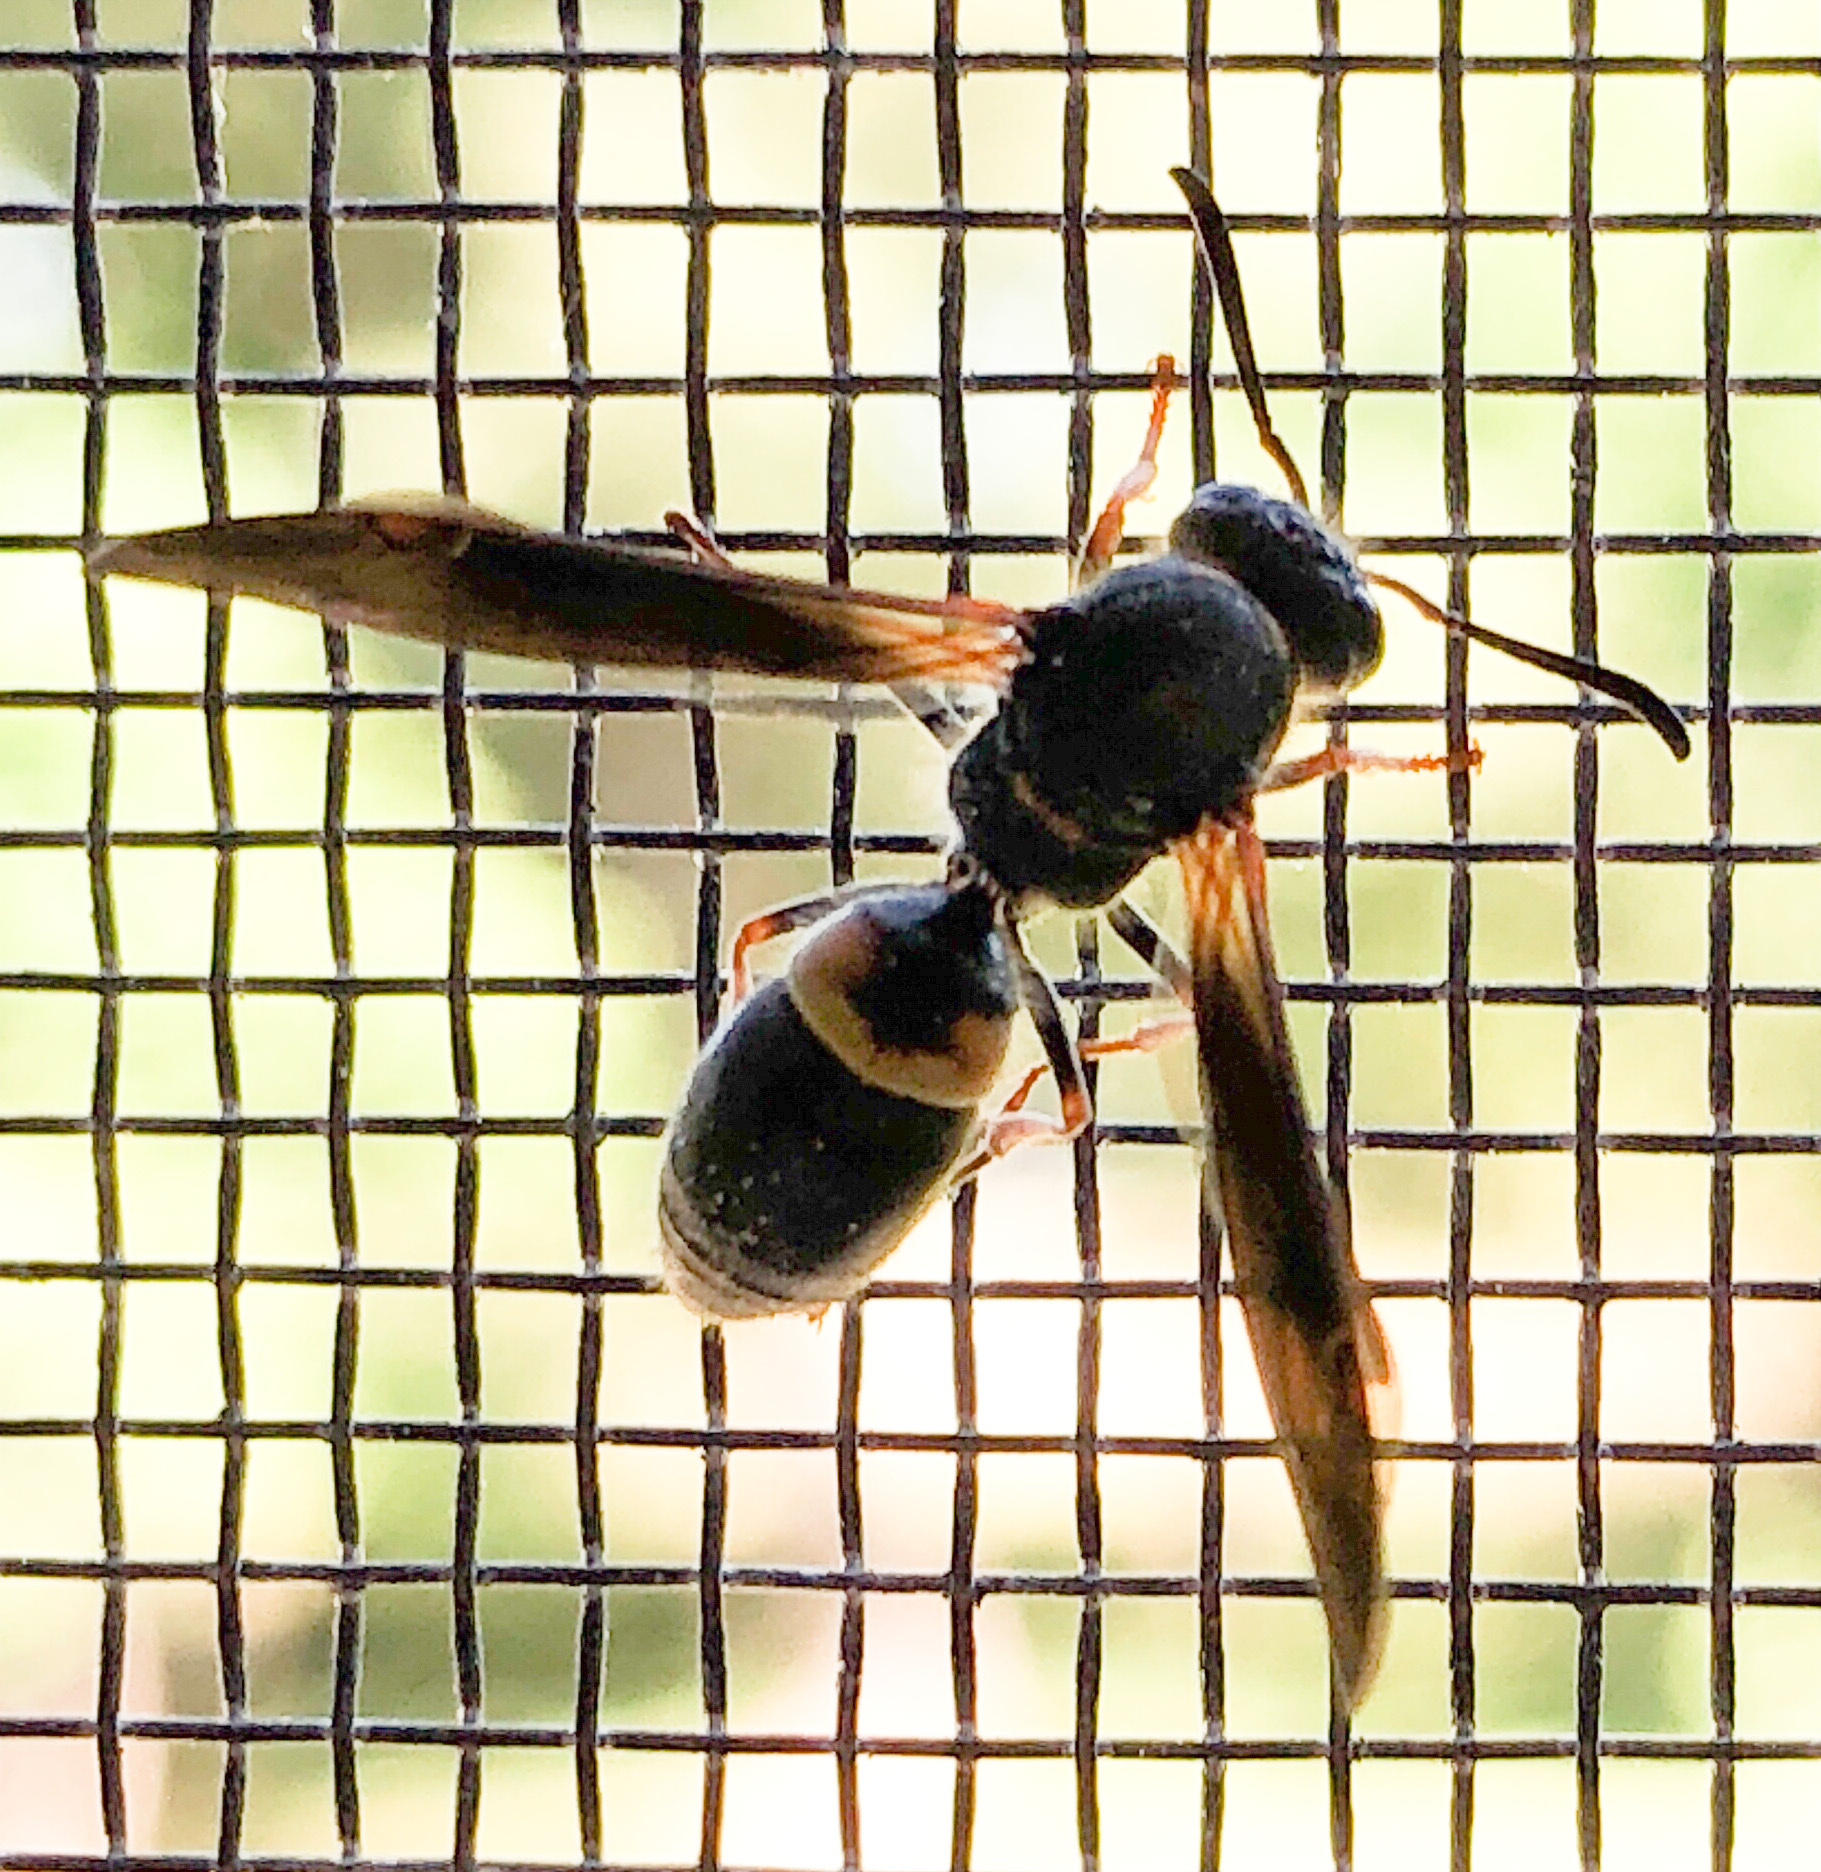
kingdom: Animalia
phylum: Arthropoda
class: Insecta
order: Hymenoptera
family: Vespidae
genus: Ancistrocerus
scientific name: Ancistrocerus unifasciatus
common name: One-banded mason wasp
